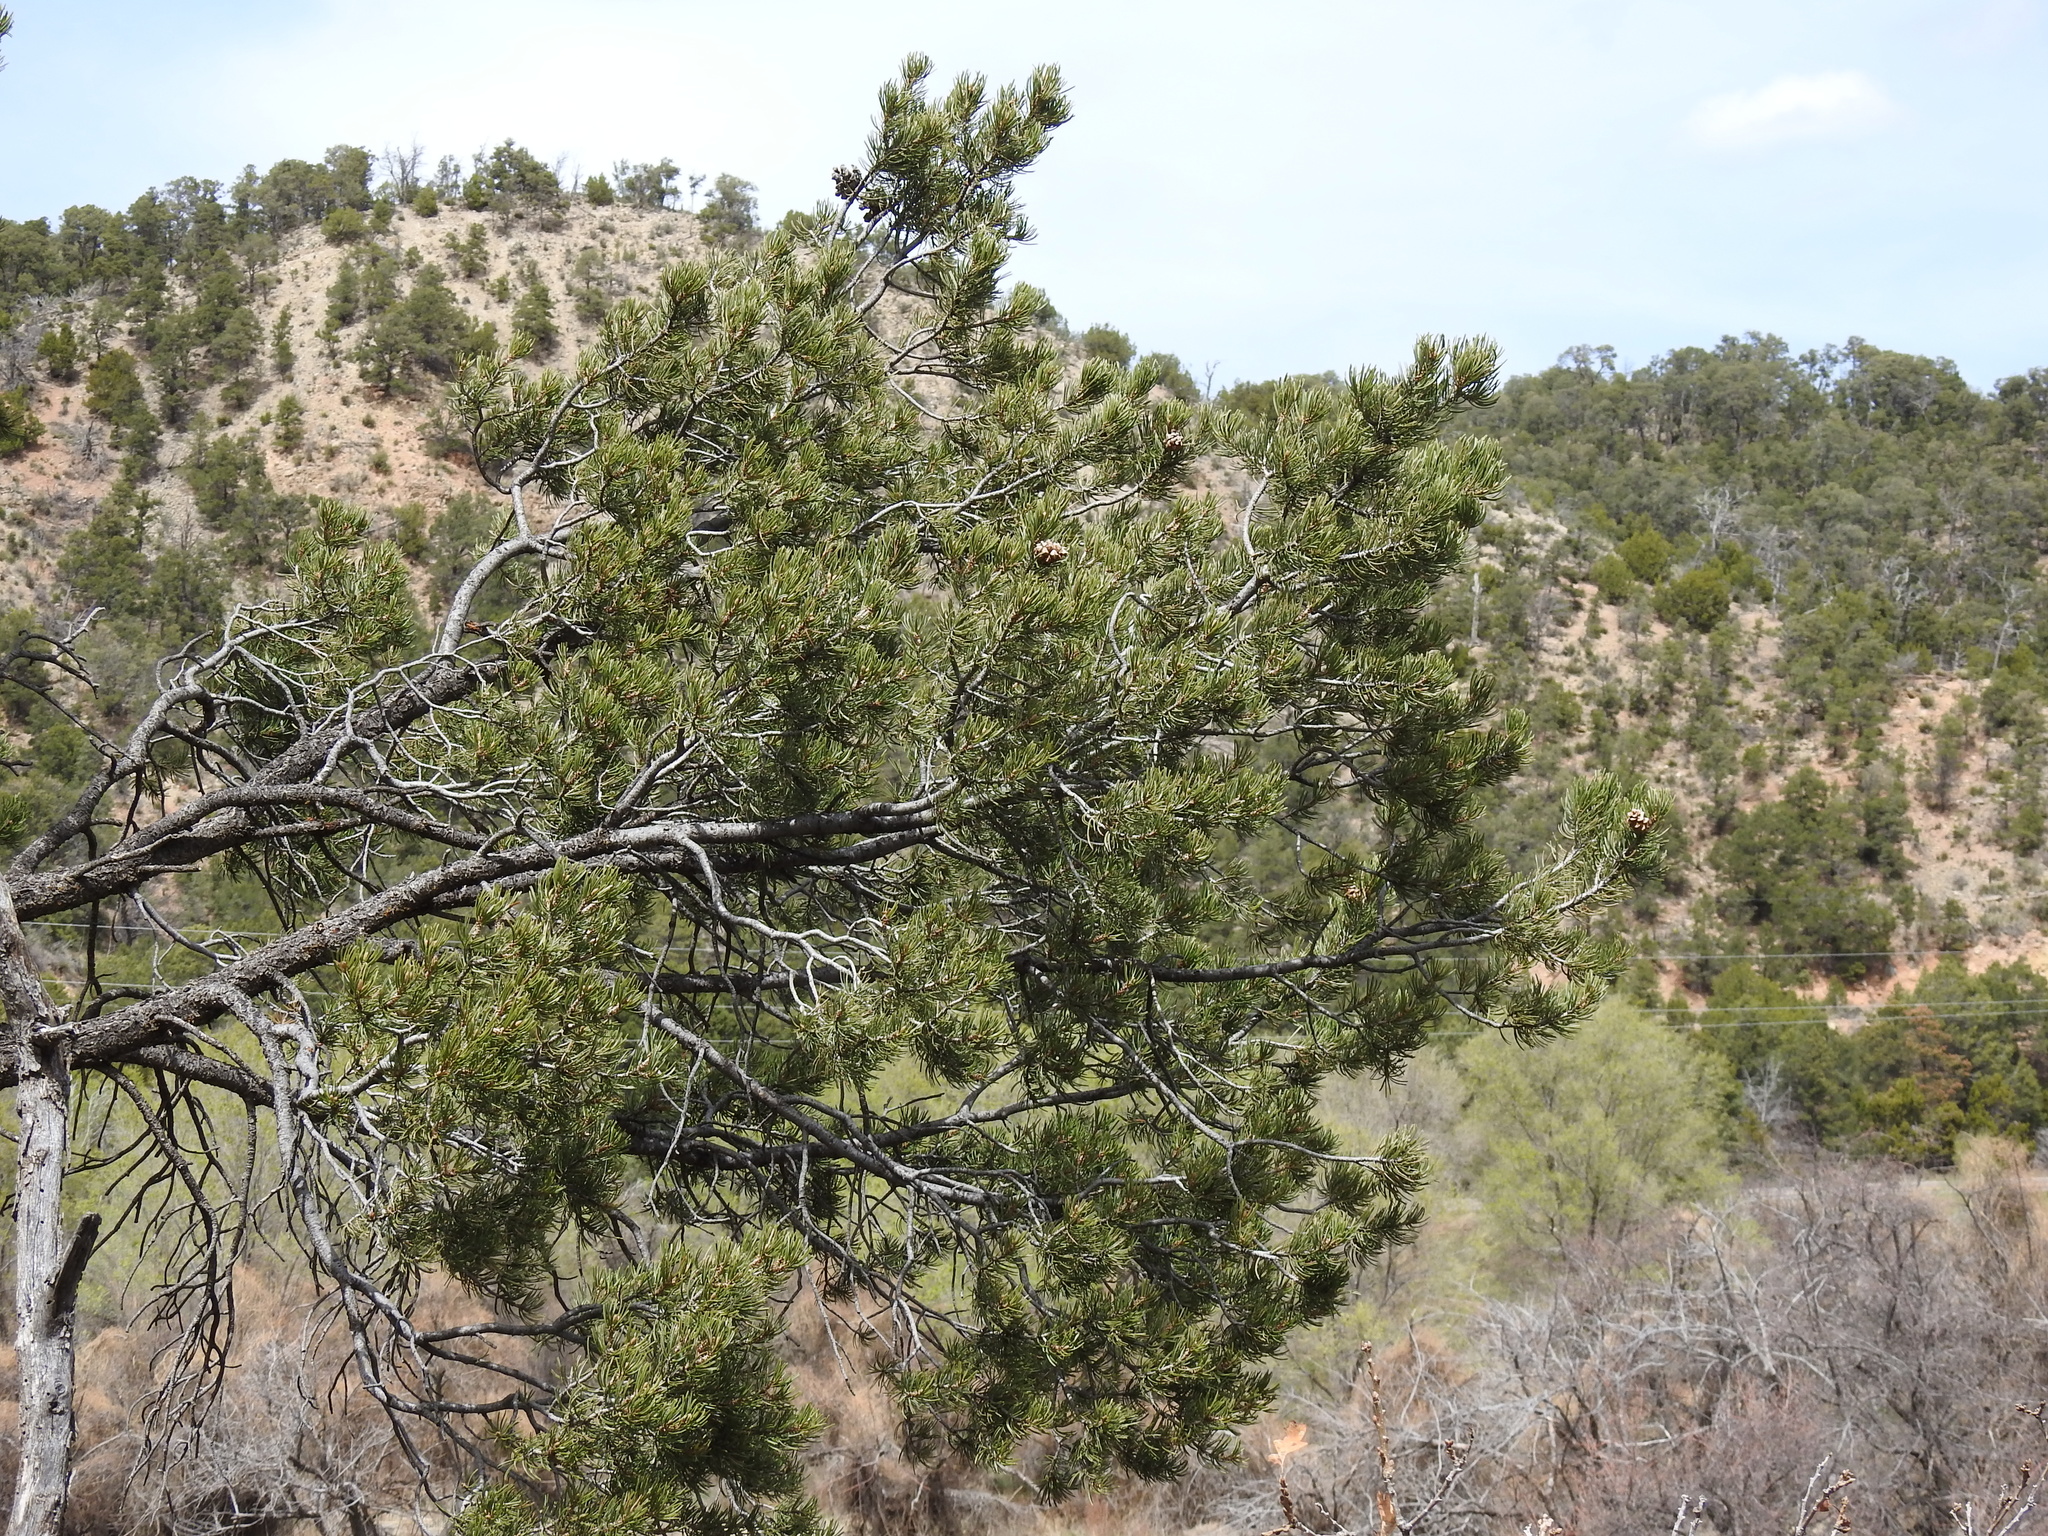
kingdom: Plantae
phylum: Tracheophyta
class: Pinopsida
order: Pinales
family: Pinaceae
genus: Pinus
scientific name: Pinus edulis
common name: Colorado pinyon
